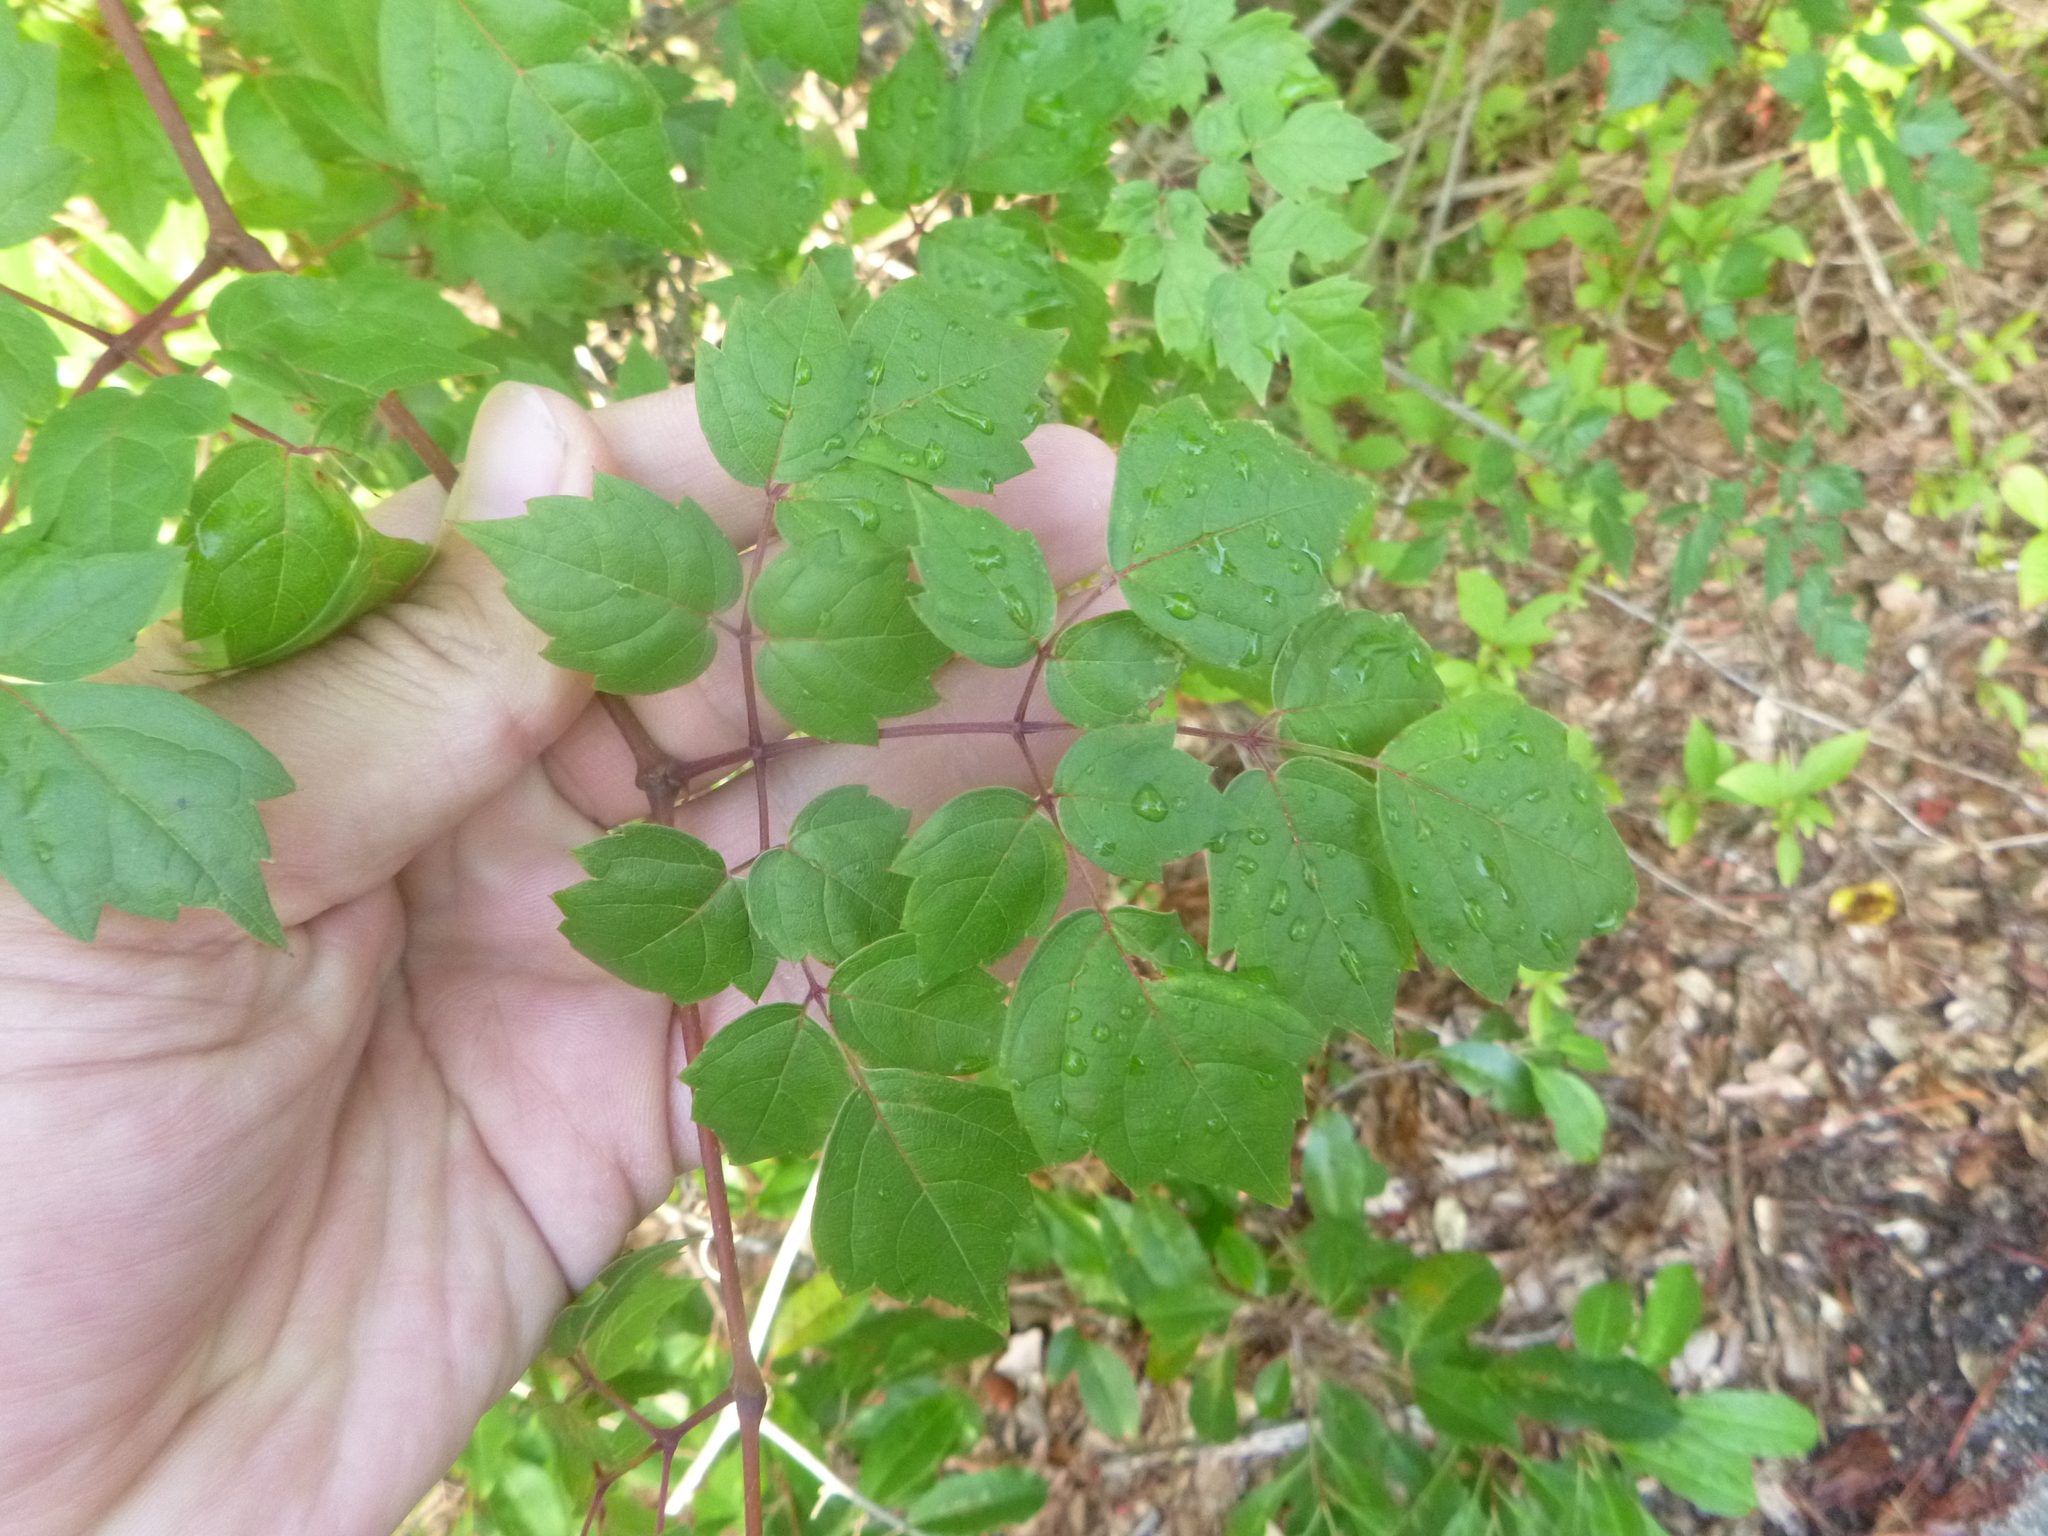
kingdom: Plantae
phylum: Tracheophyta
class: Magnoliopsida
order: Vitales
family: Vitaceae
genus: Nekemias
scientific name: Nekemias arborea
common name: Peppervine
